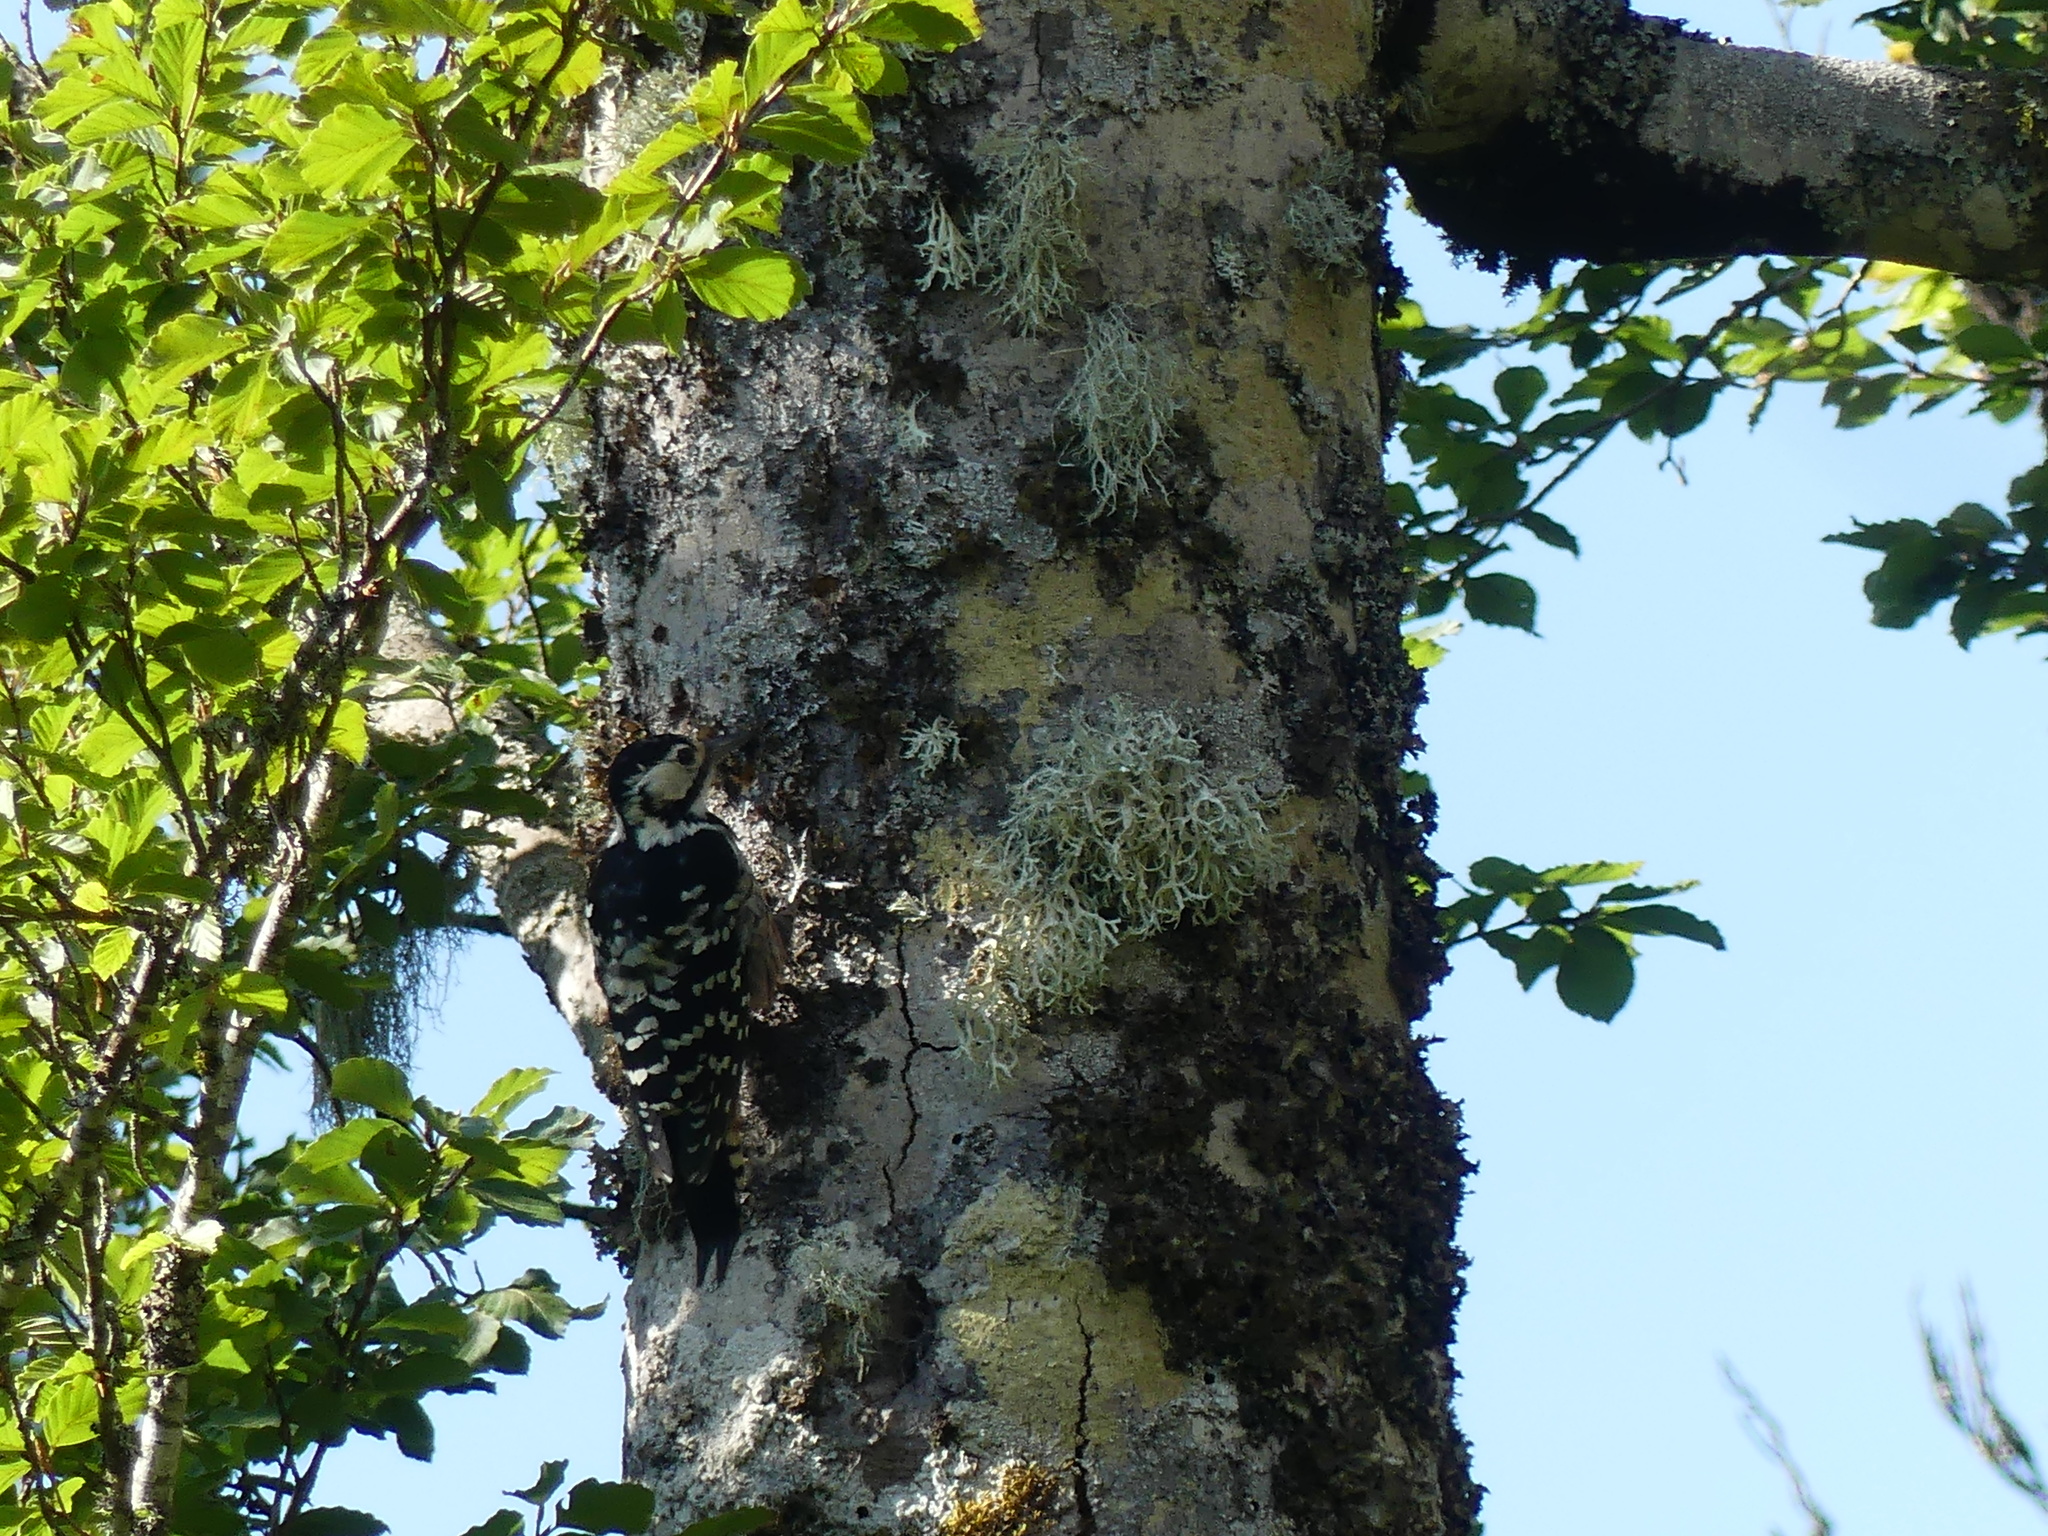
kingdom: Animalia
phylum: Chordata
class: Aves
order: Piciformes
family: Picidae
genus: Dendrocopos
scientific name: Dendrocopos leucotos
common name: White-backed woodpecker
